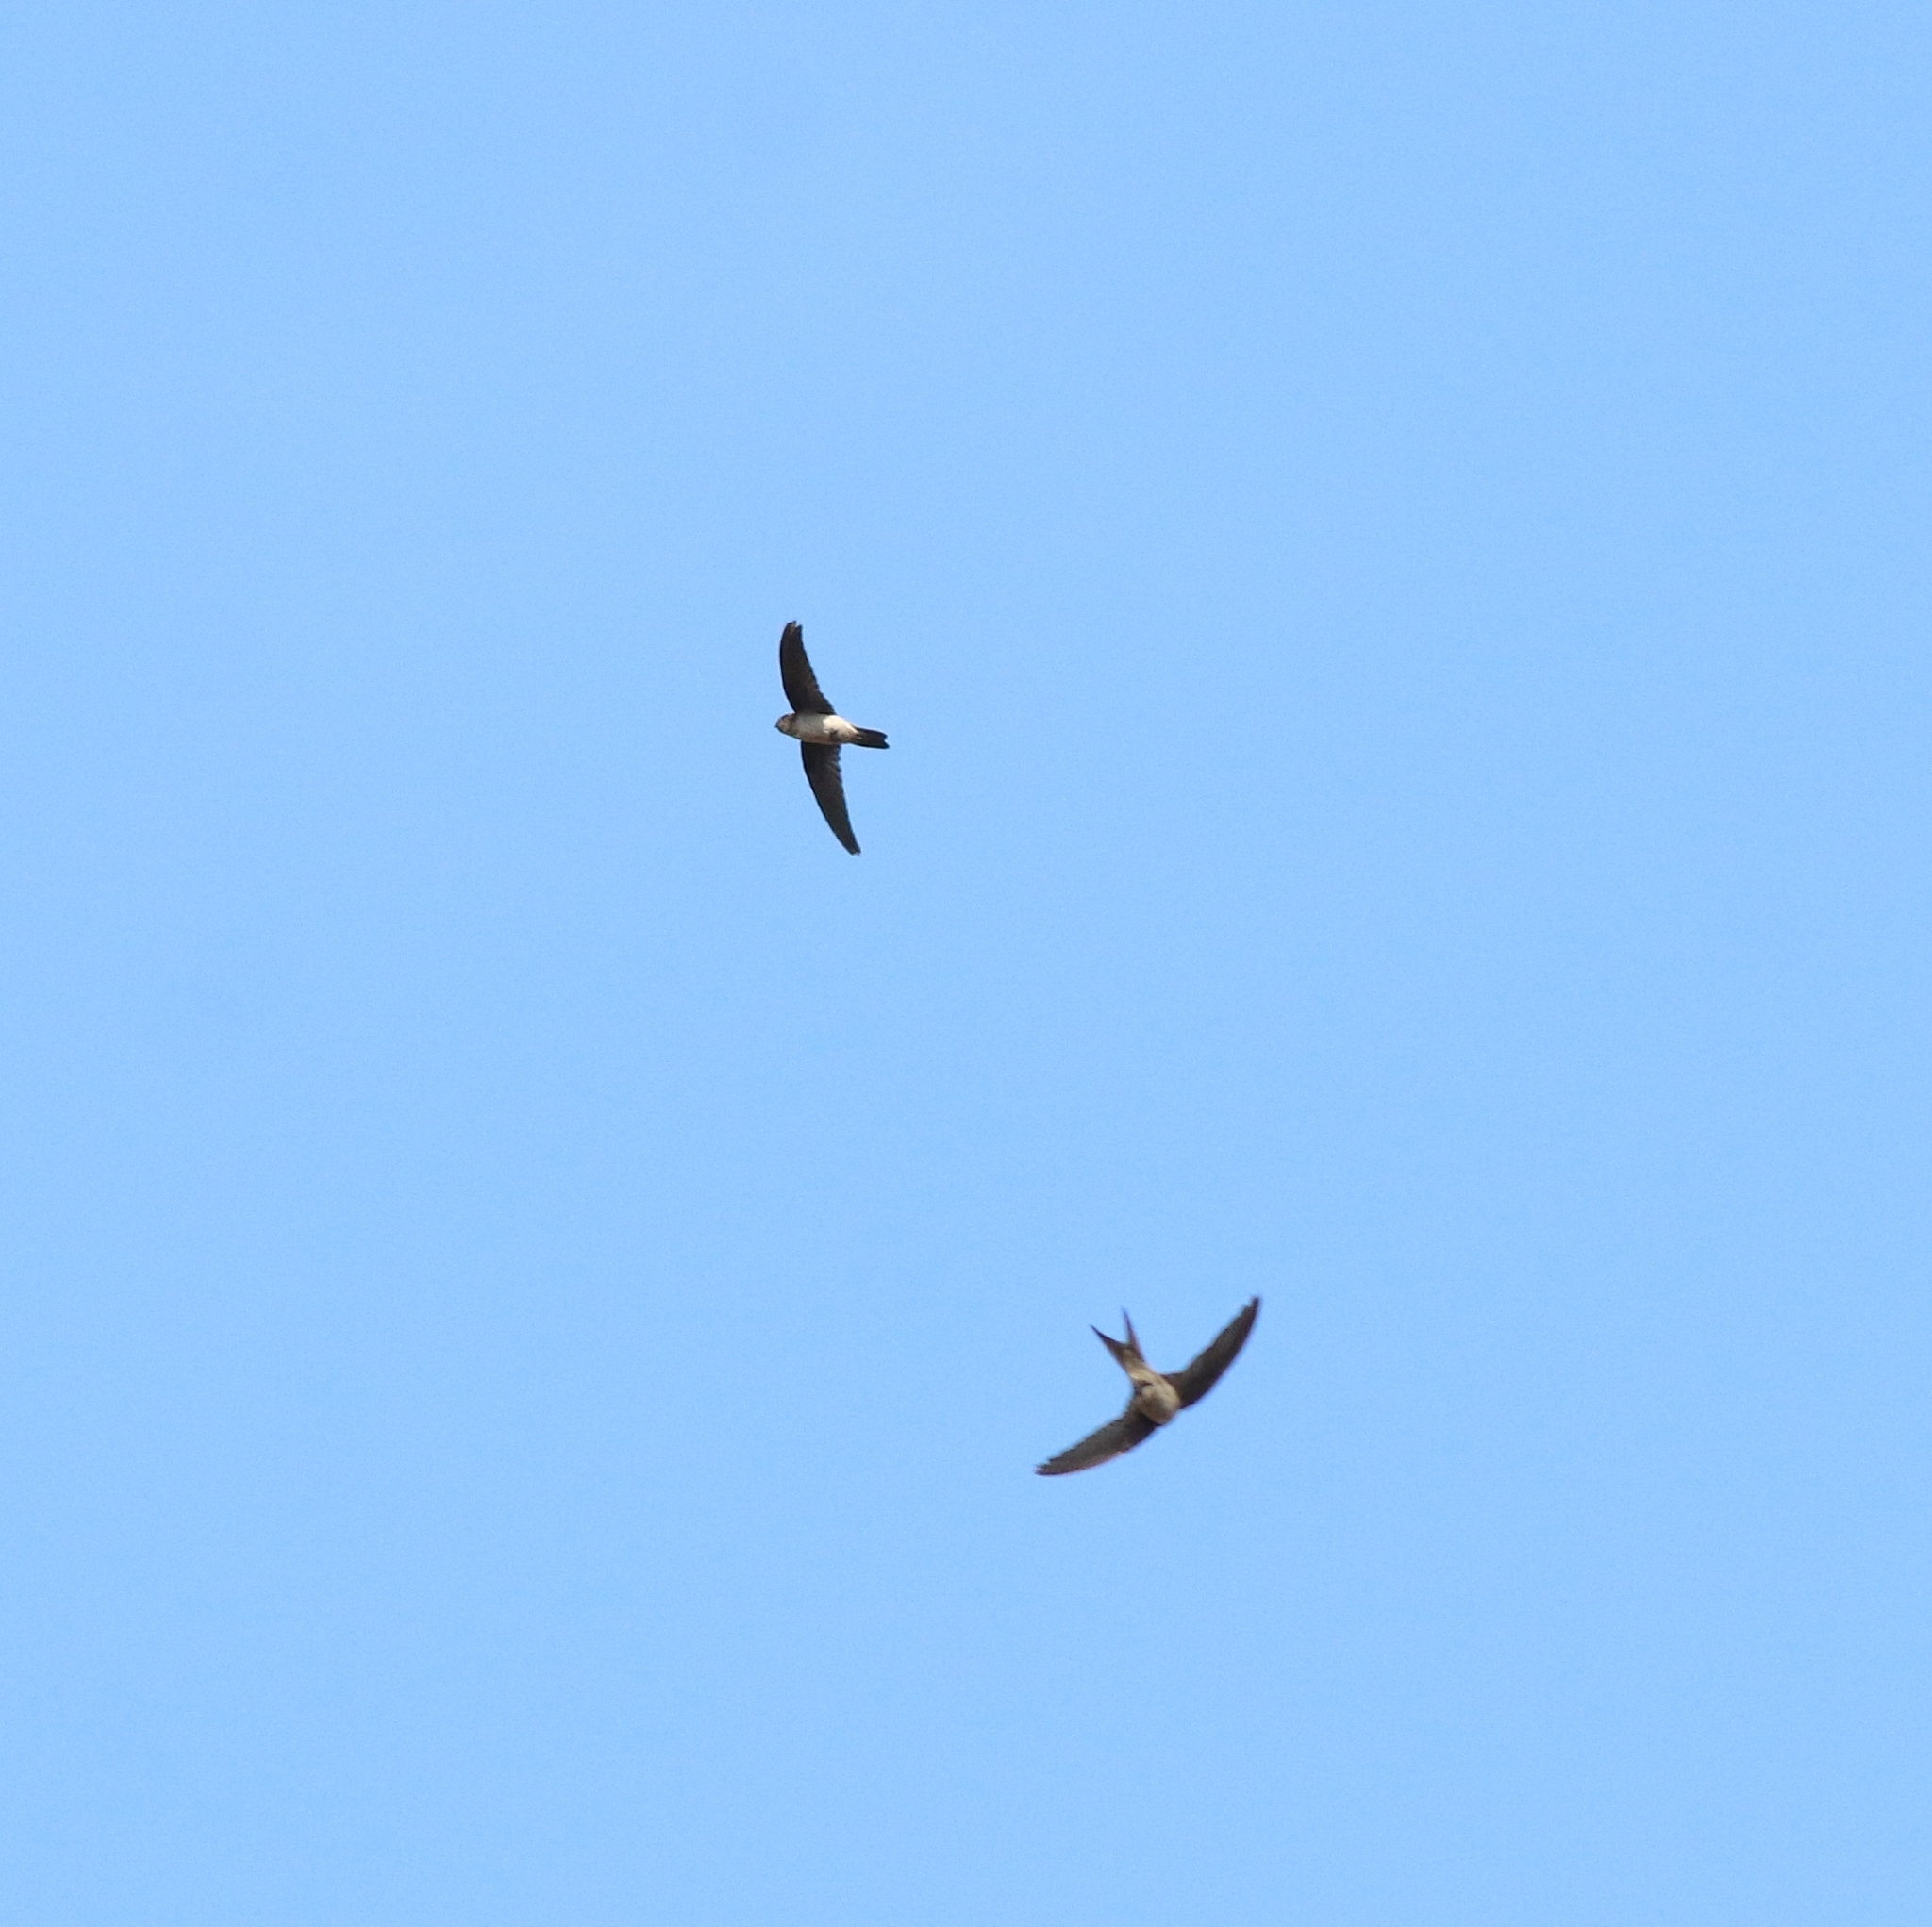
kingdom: Animalia
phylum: Chordata
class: Aves
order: Apodiformes
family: Apodidae
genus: Cypsiurus
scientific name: Cypsiurus balasiensis
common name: Asian palm swift
